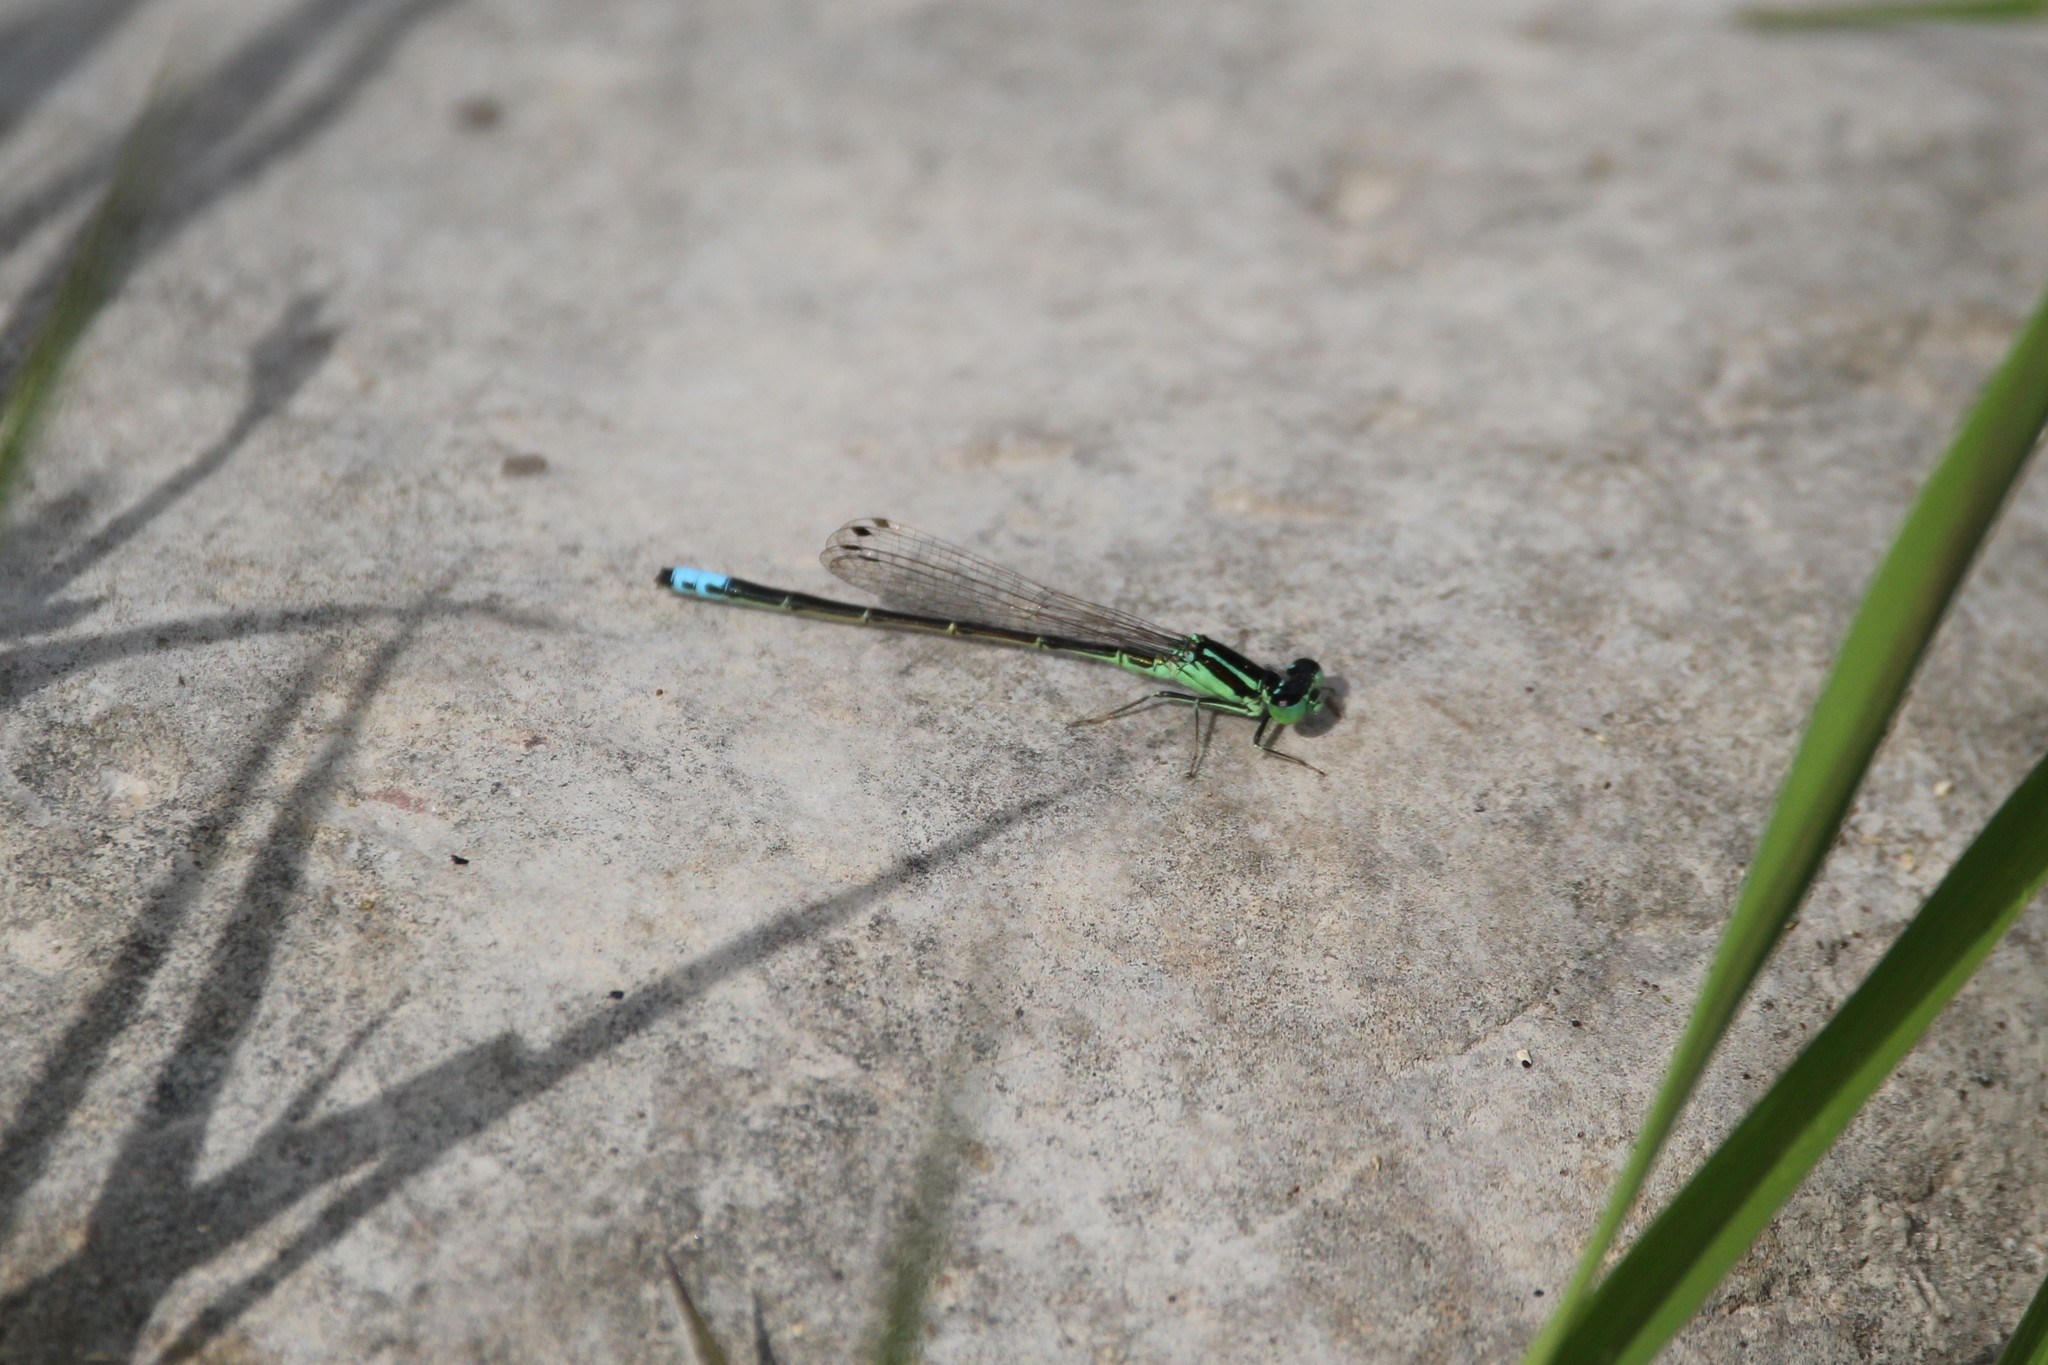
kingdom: Animalia
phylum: Arthropoda
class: Insecta
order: Odonata
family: Coenagrionidae
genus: Ischnura
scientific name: Ischnura verticalis
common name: Eastern forktail
